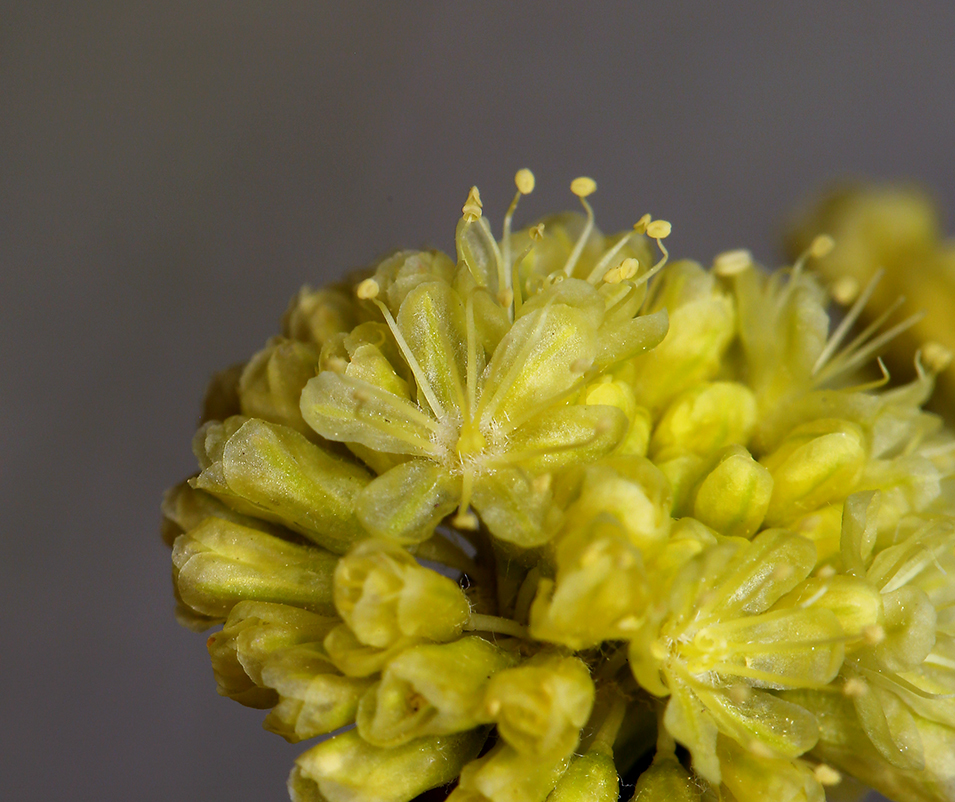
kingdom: Plantae
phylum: Tracheophyta
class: Magnoliopsida
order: Caryophyllales
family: Polygonaceae
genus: Eriogonum
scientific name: Eriogonum nudum
